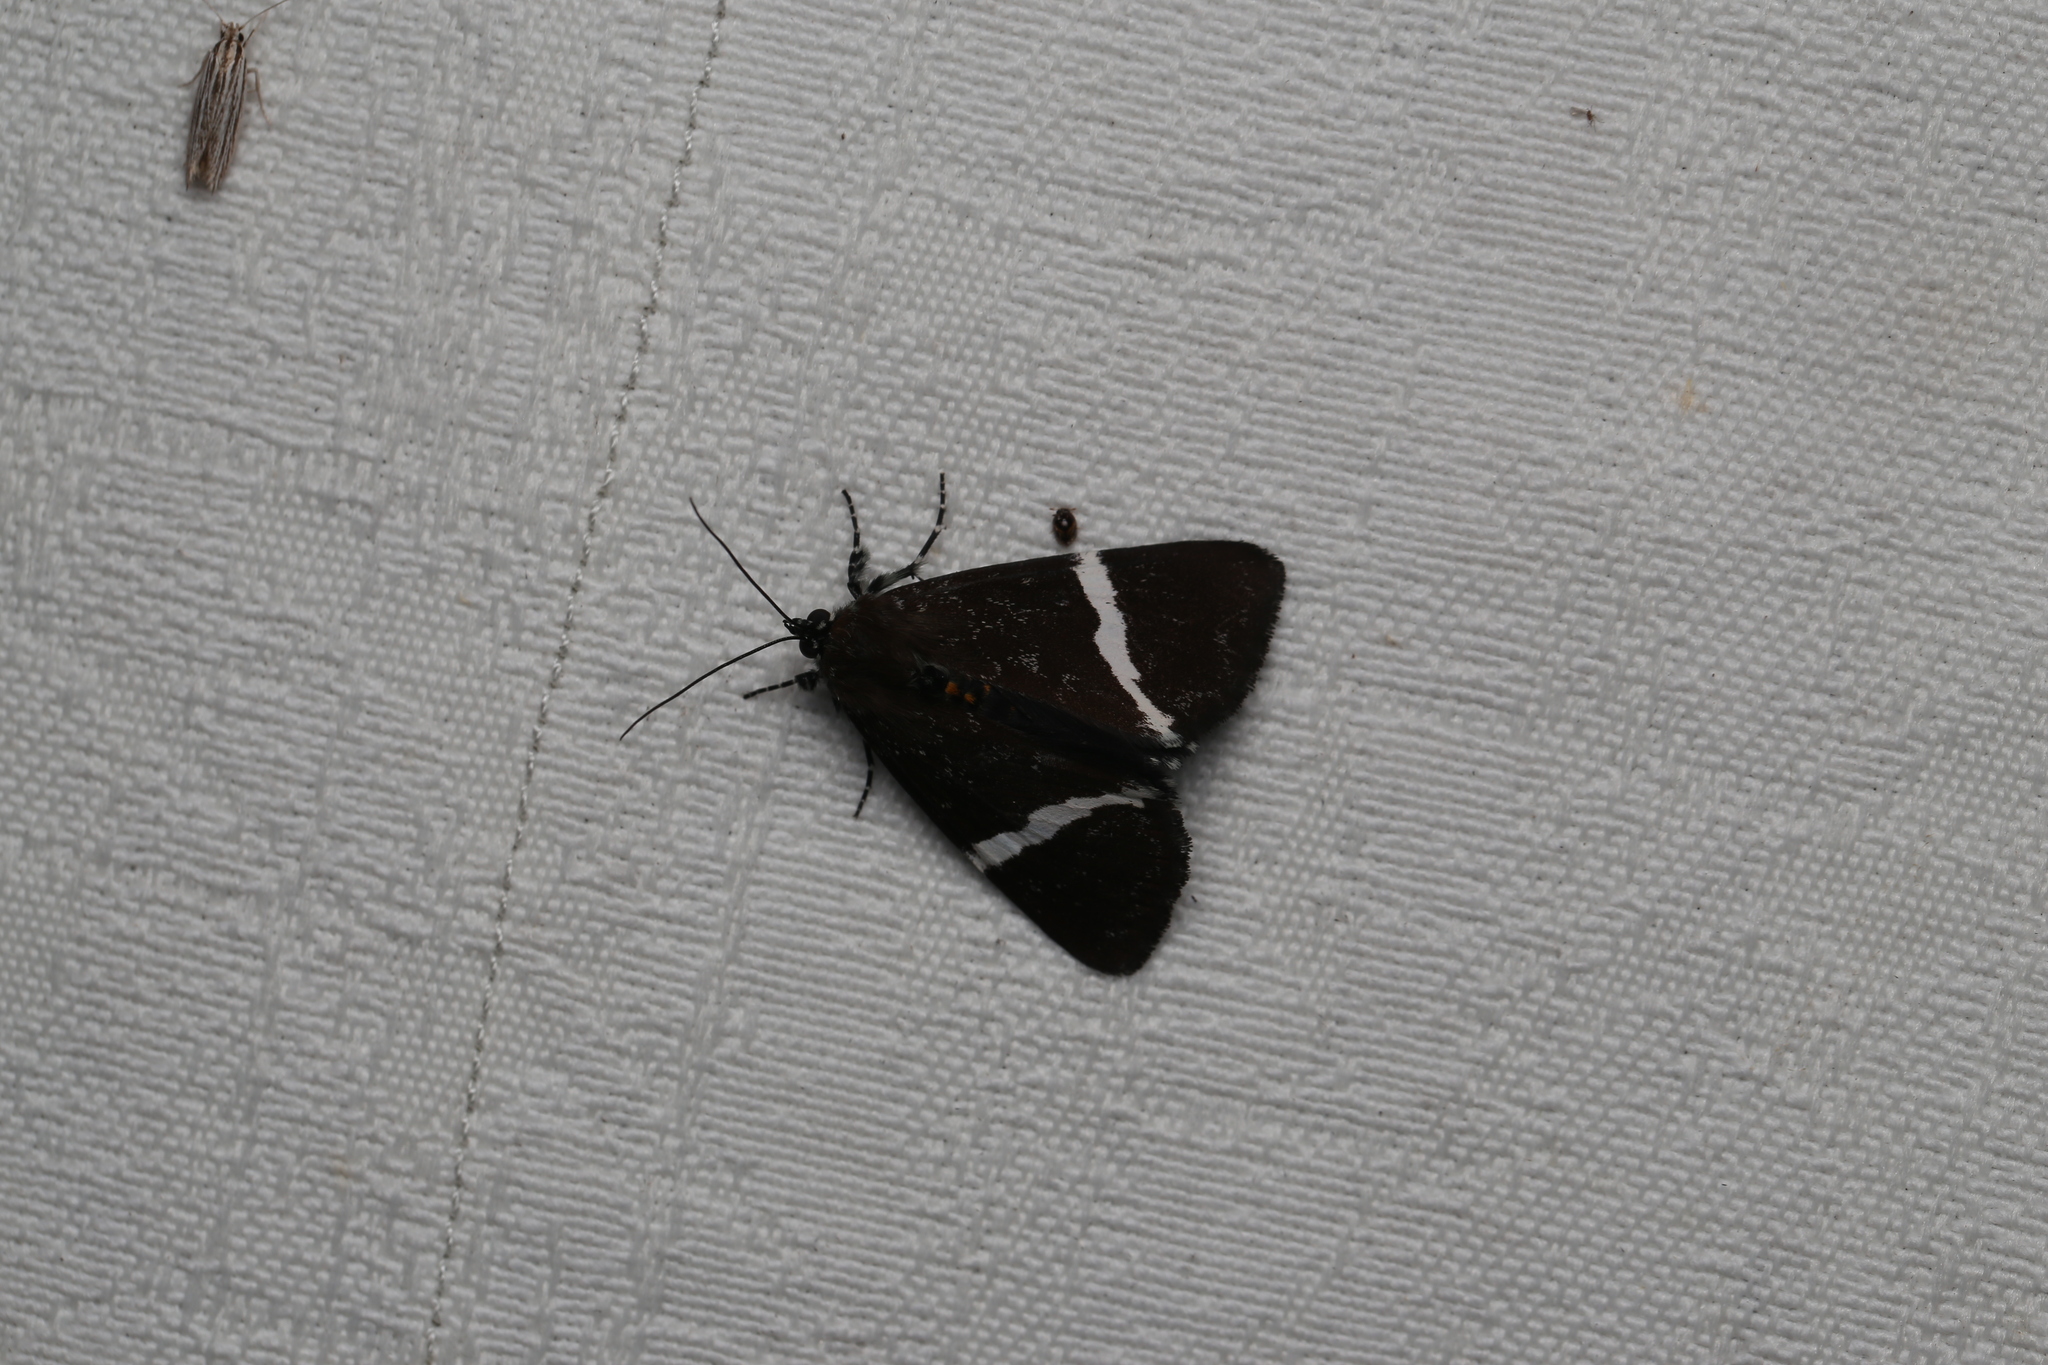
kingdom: Animalia
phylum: Arthropoda
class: Insecta
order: Lepidoptera
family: Noctuidae
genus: Coenotoca
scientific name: Coenotoca subaspersa
